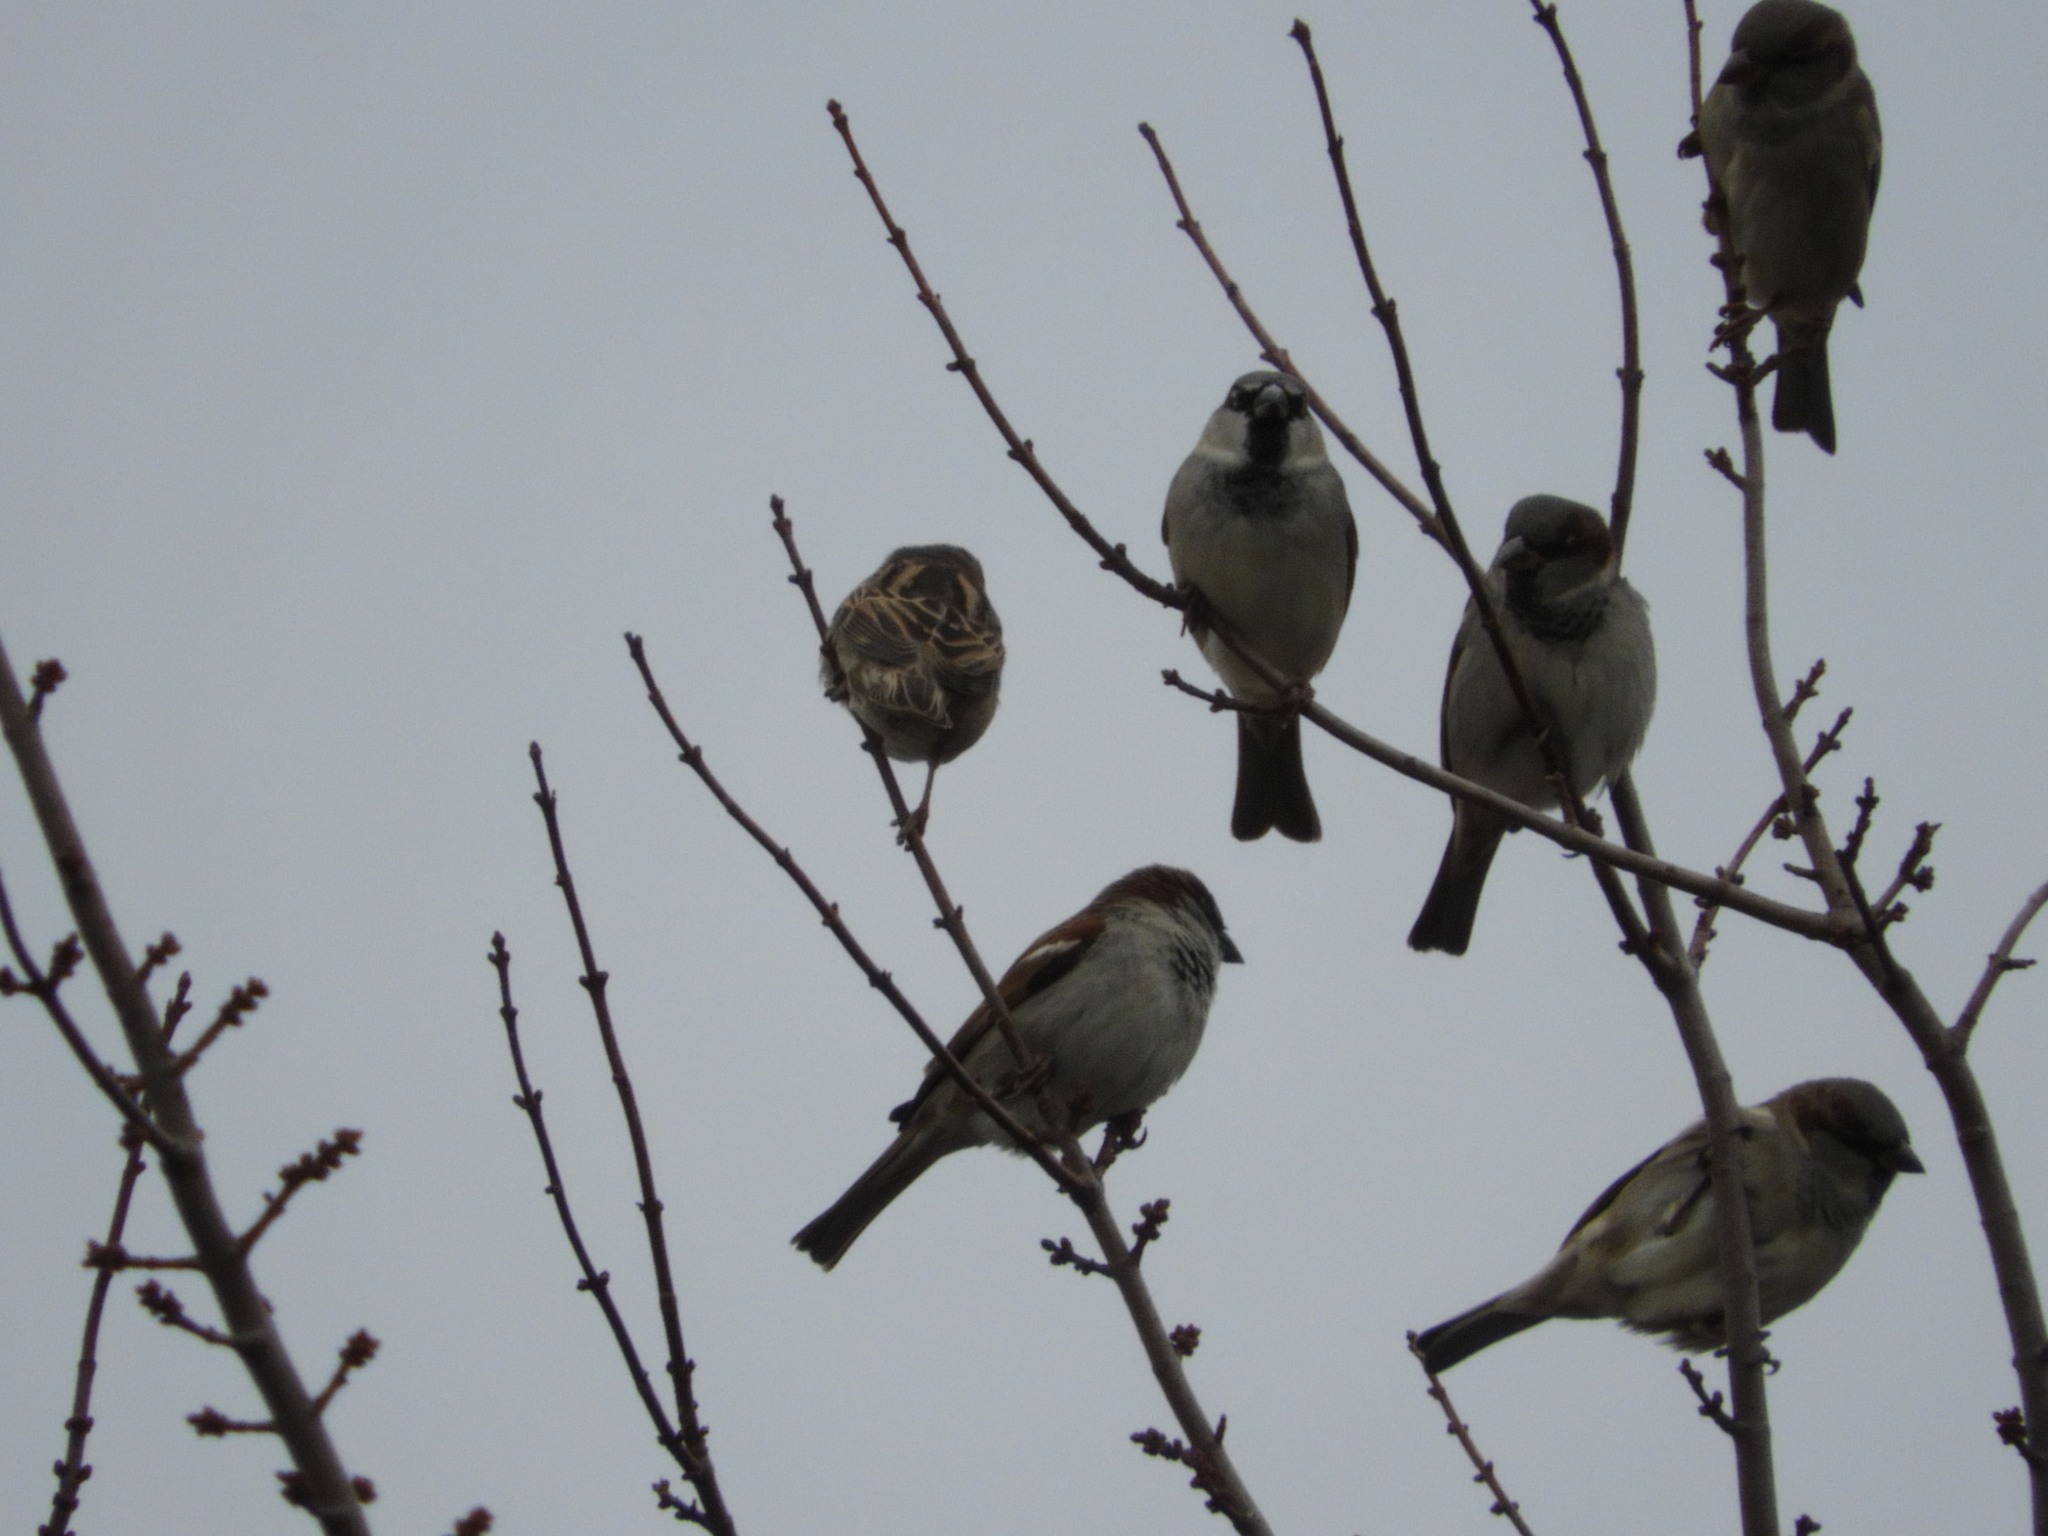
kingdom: Animalia
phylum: Chordata
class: Aves
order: Passeriformes
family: Passeridae
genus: Passer
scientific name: Passer domesticus
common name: House sparrow
